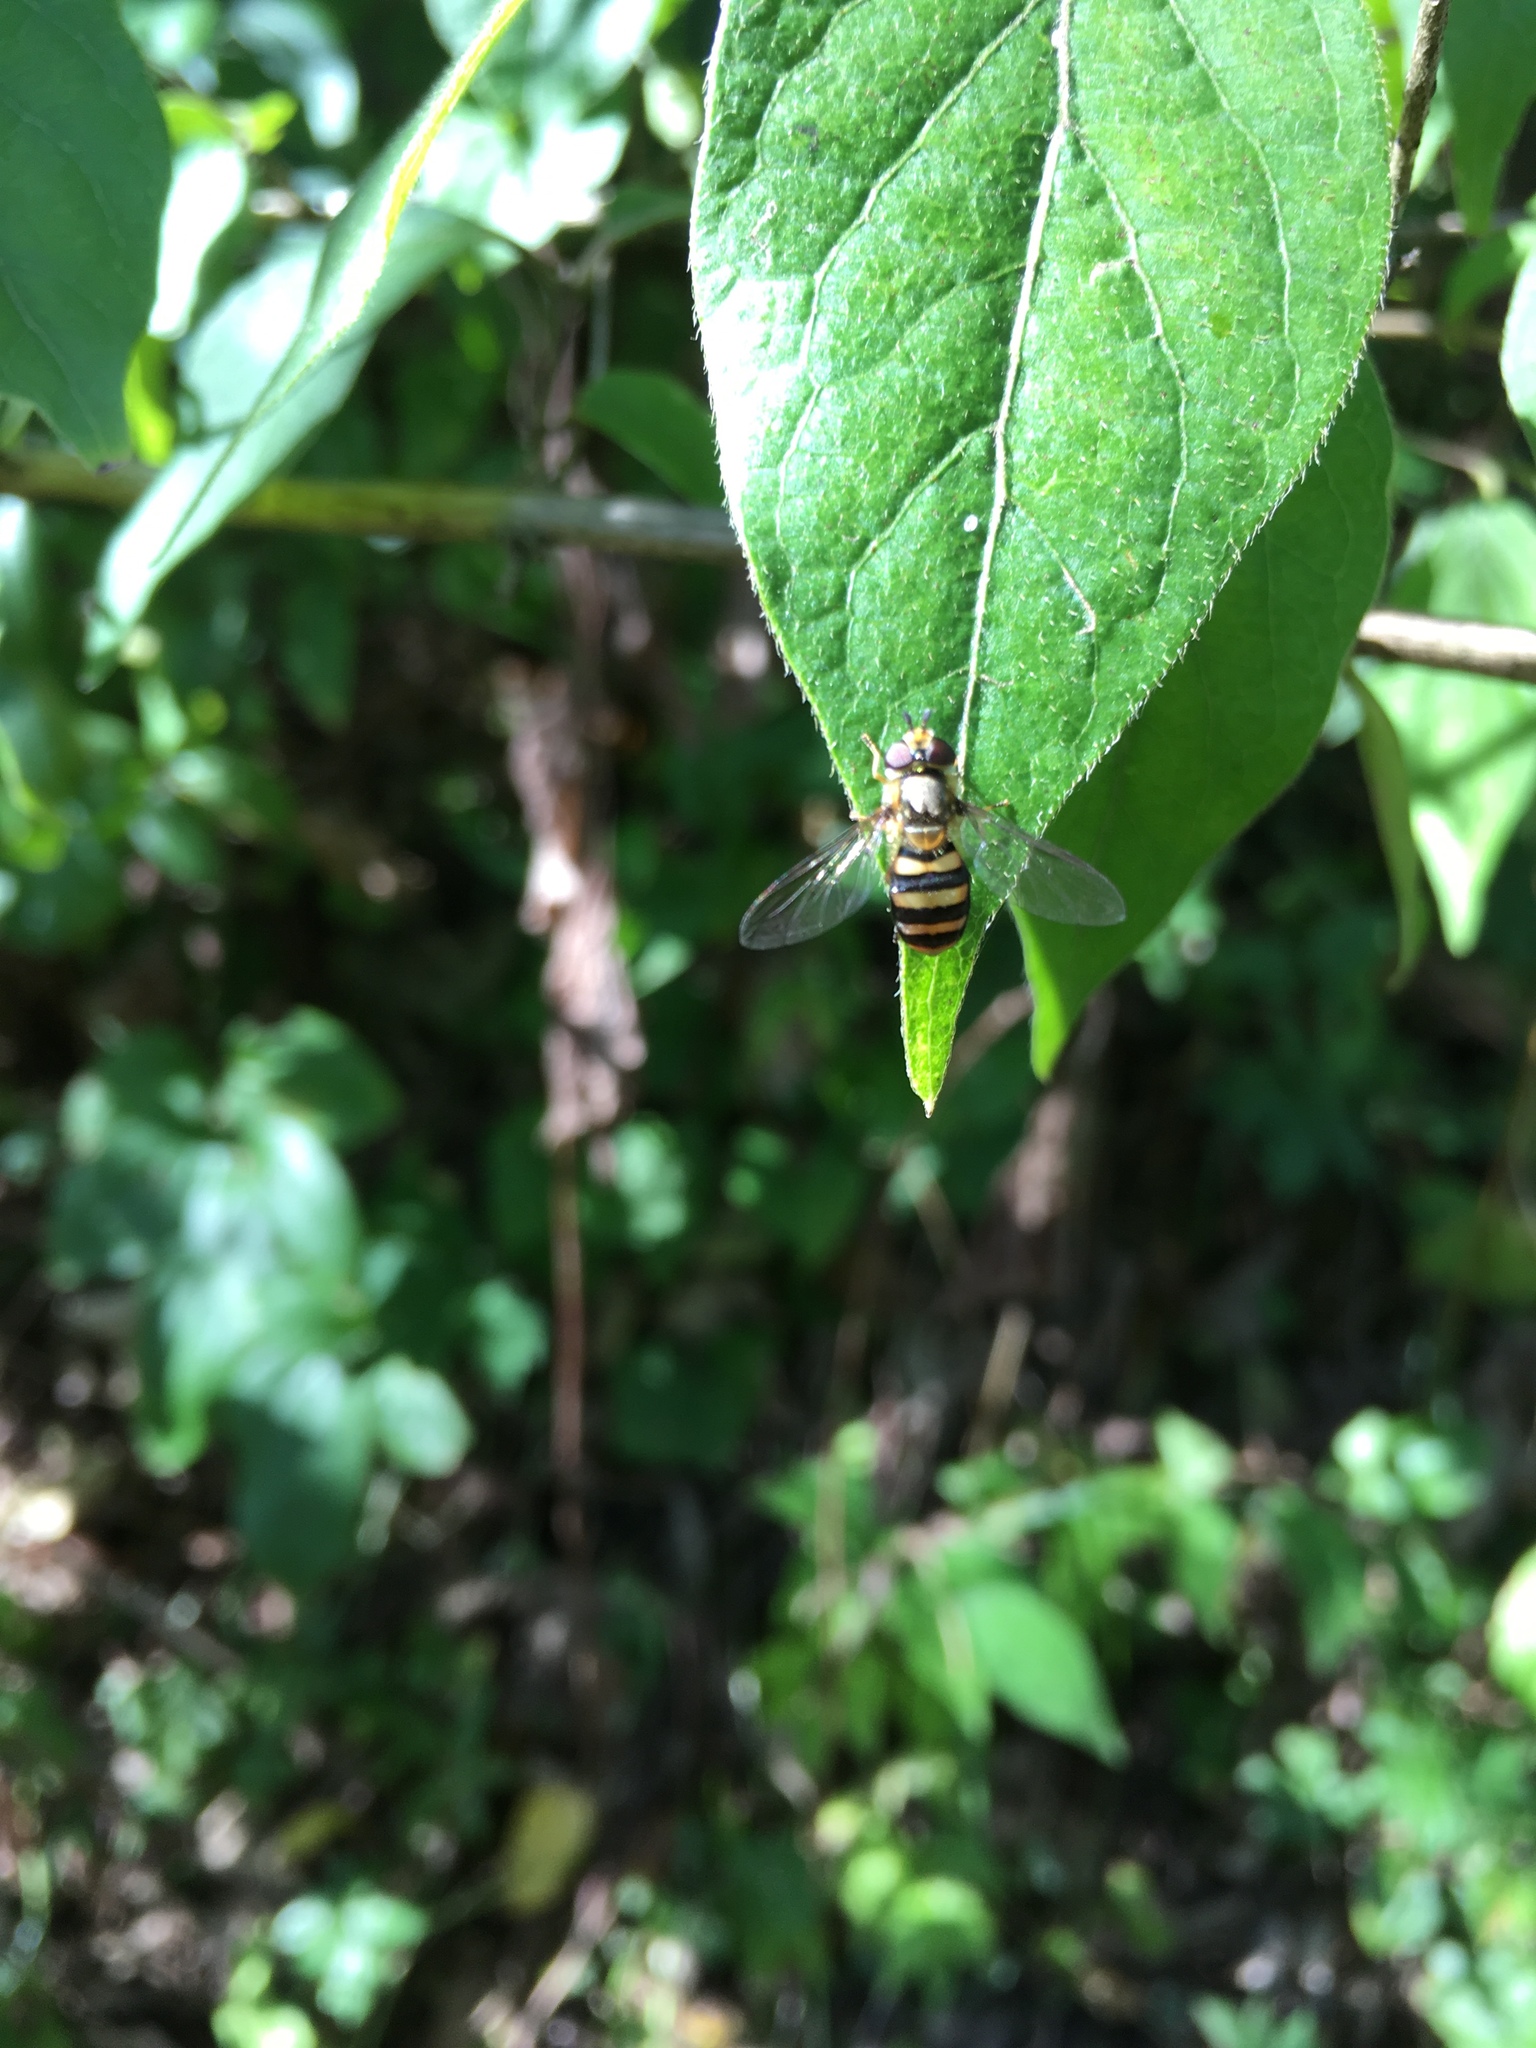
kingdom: Animalia
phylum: Arthropoda
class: Insecta
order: Diptera
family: Syrphidae
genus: Eupeodes
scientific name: Eupeodes
